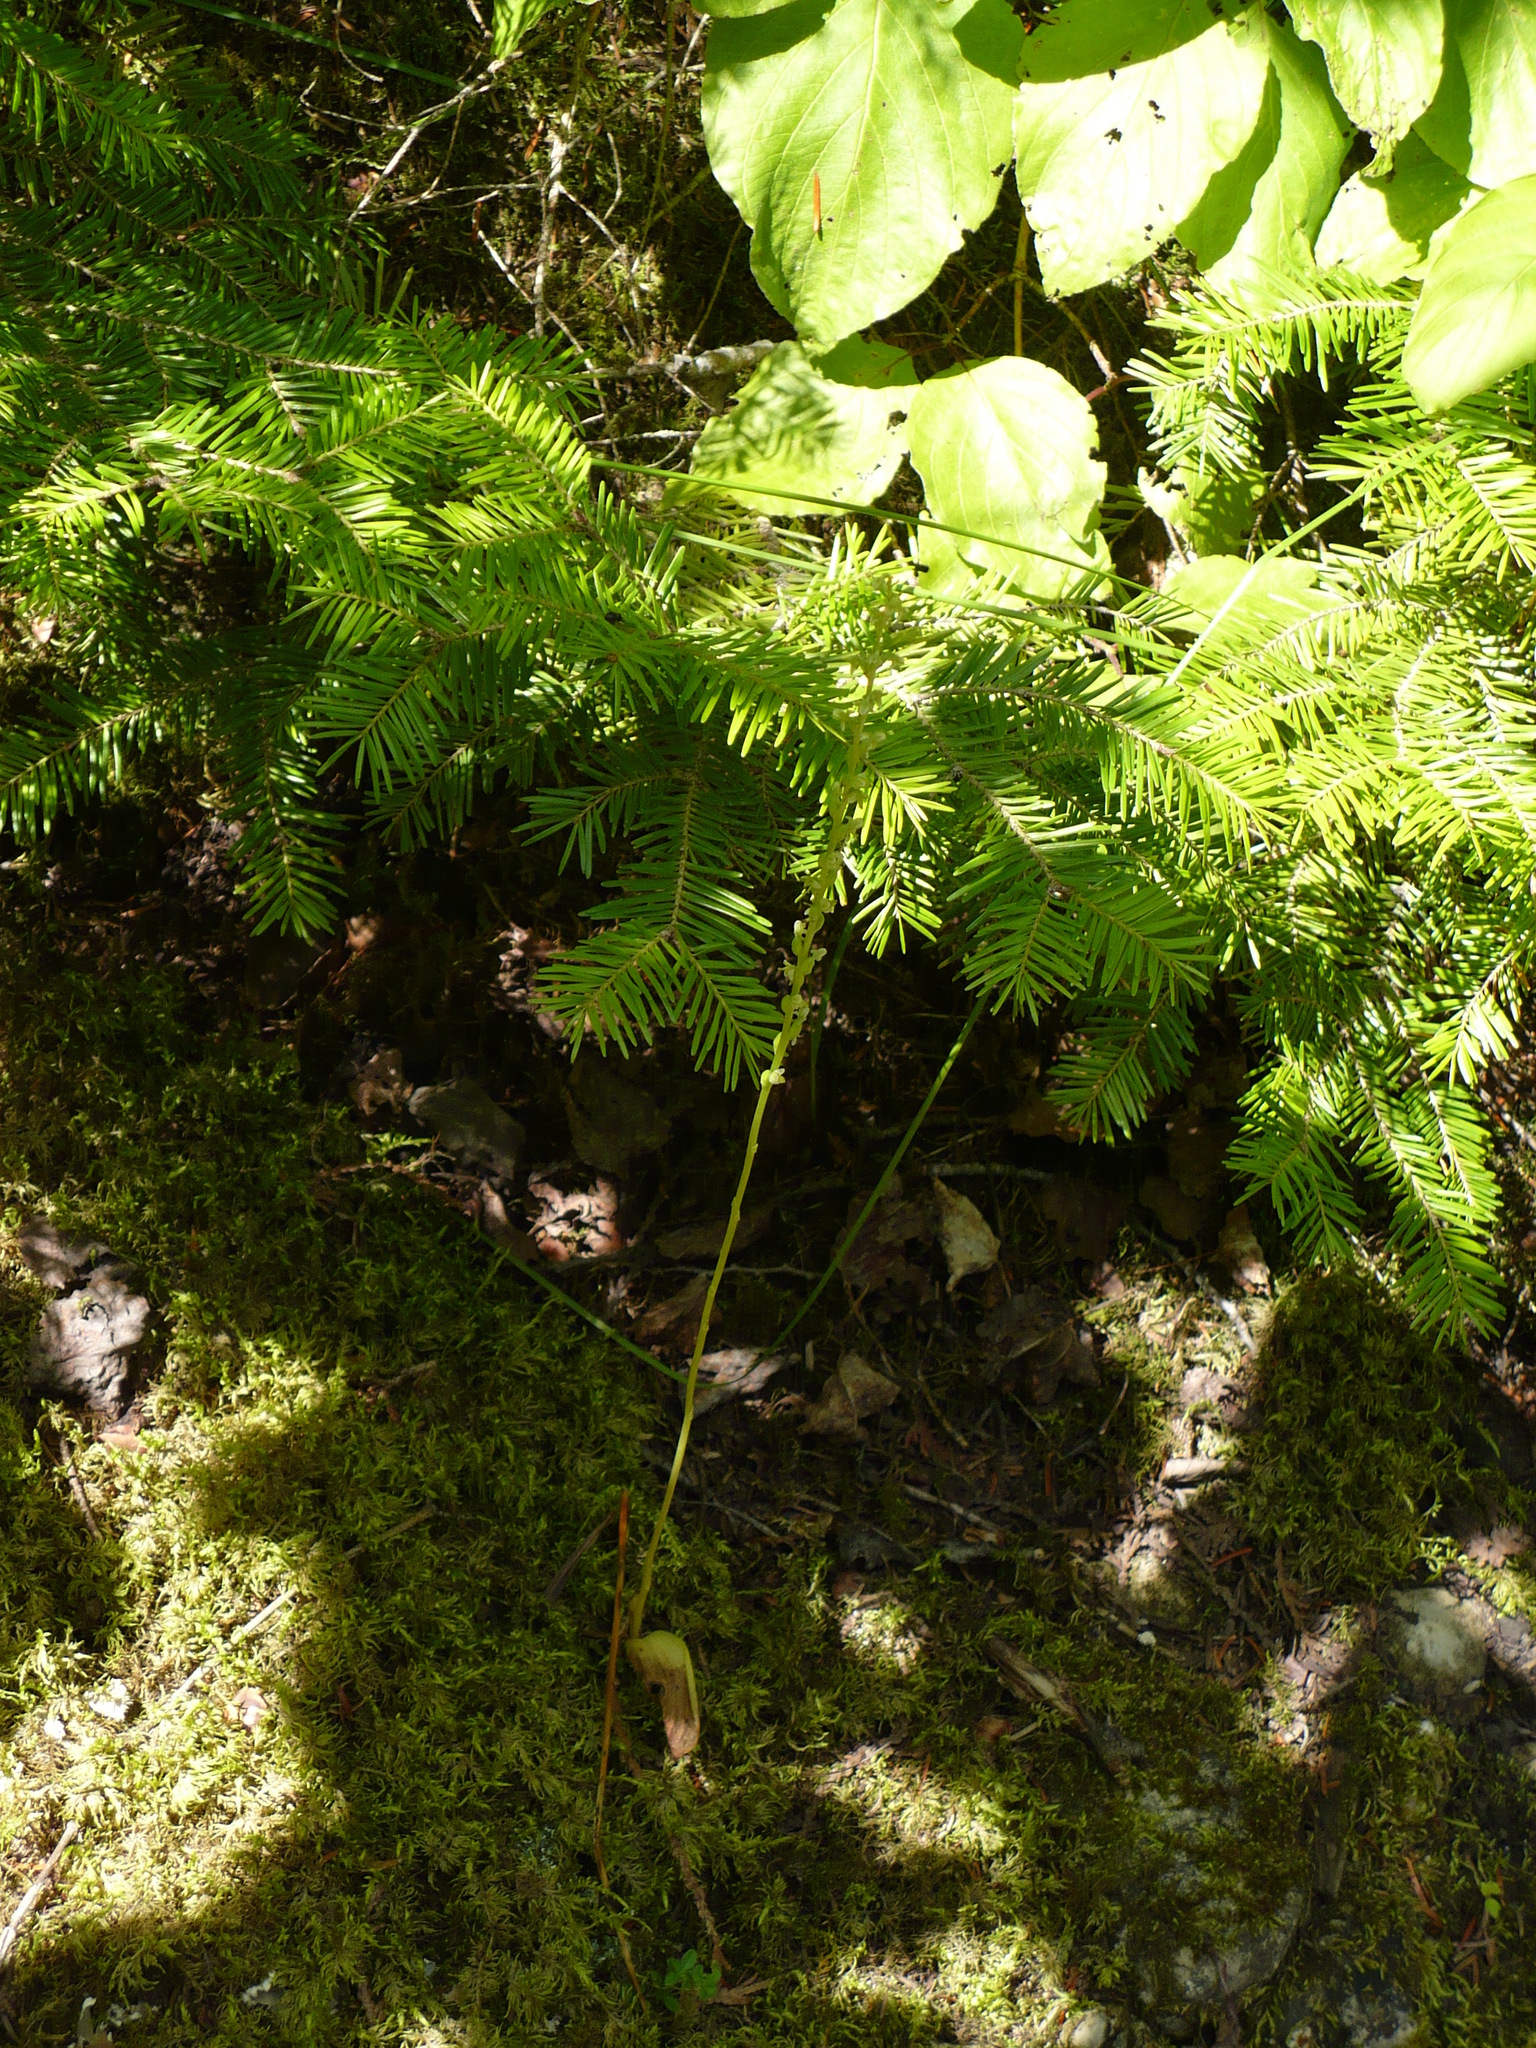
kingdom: Plantae
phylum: Tracheophyta
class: Liliopsida
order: Asparagales
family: Orchidaceae
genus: Platanthera
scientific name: Platanthera unalascensis
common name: Alaska bog orchid
